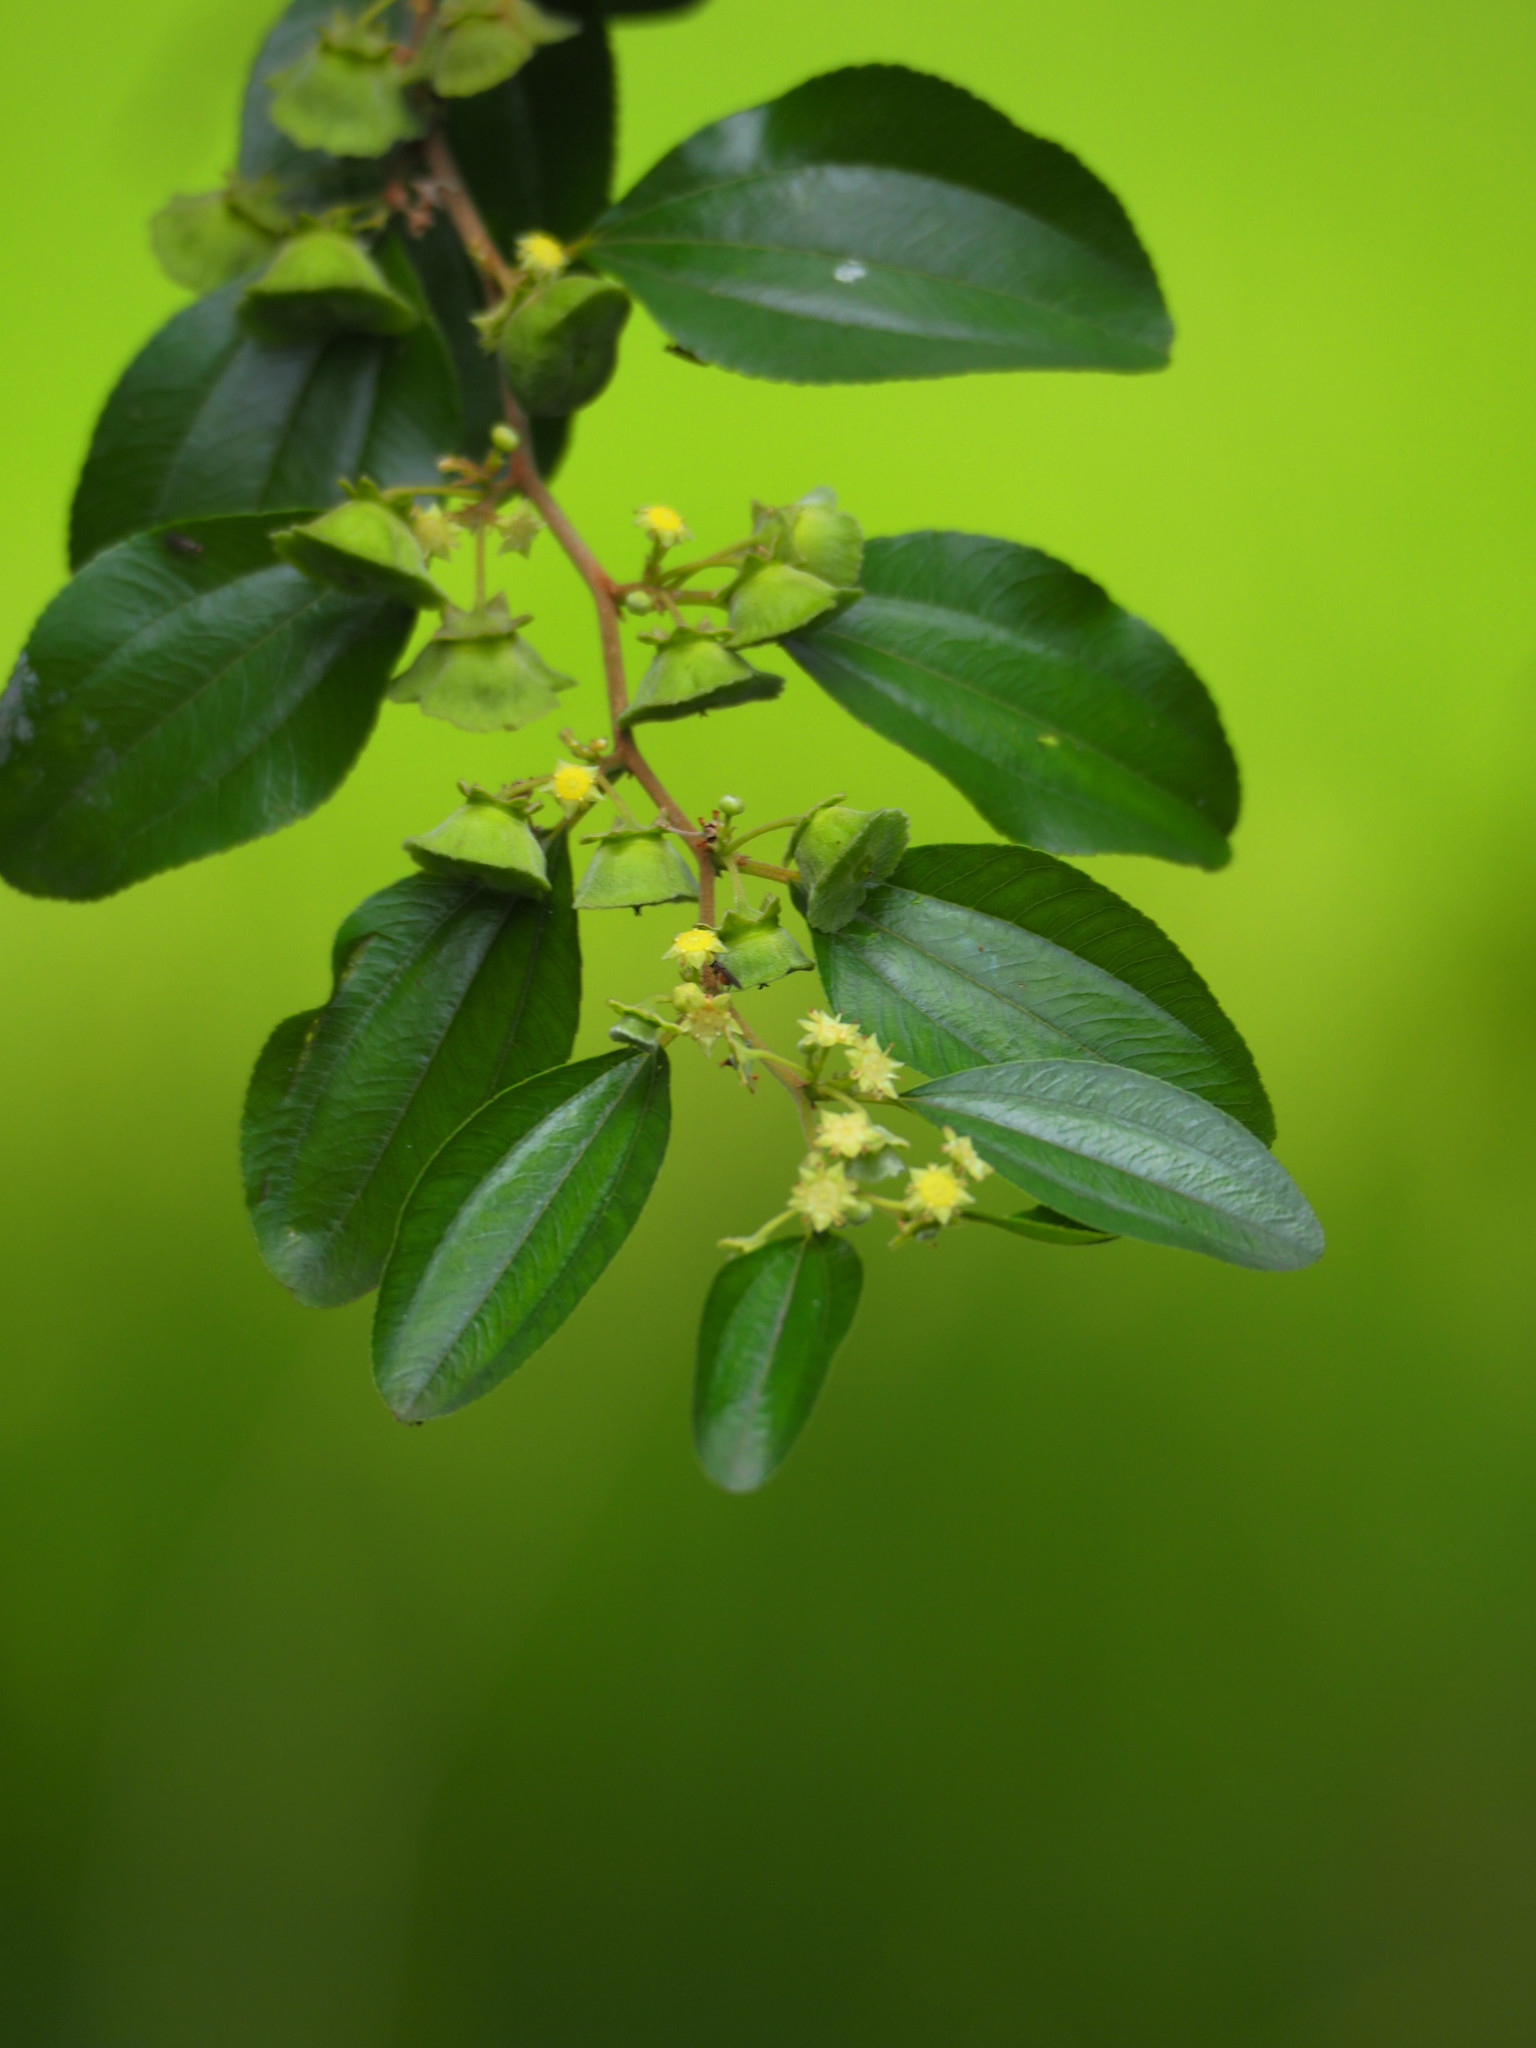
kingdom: Plantae
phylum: Tracheophyta
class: Magnoliopsida
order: Rosales
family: Rhamnaceae
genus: Paliurus
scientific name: Paliurus ramosissimus
